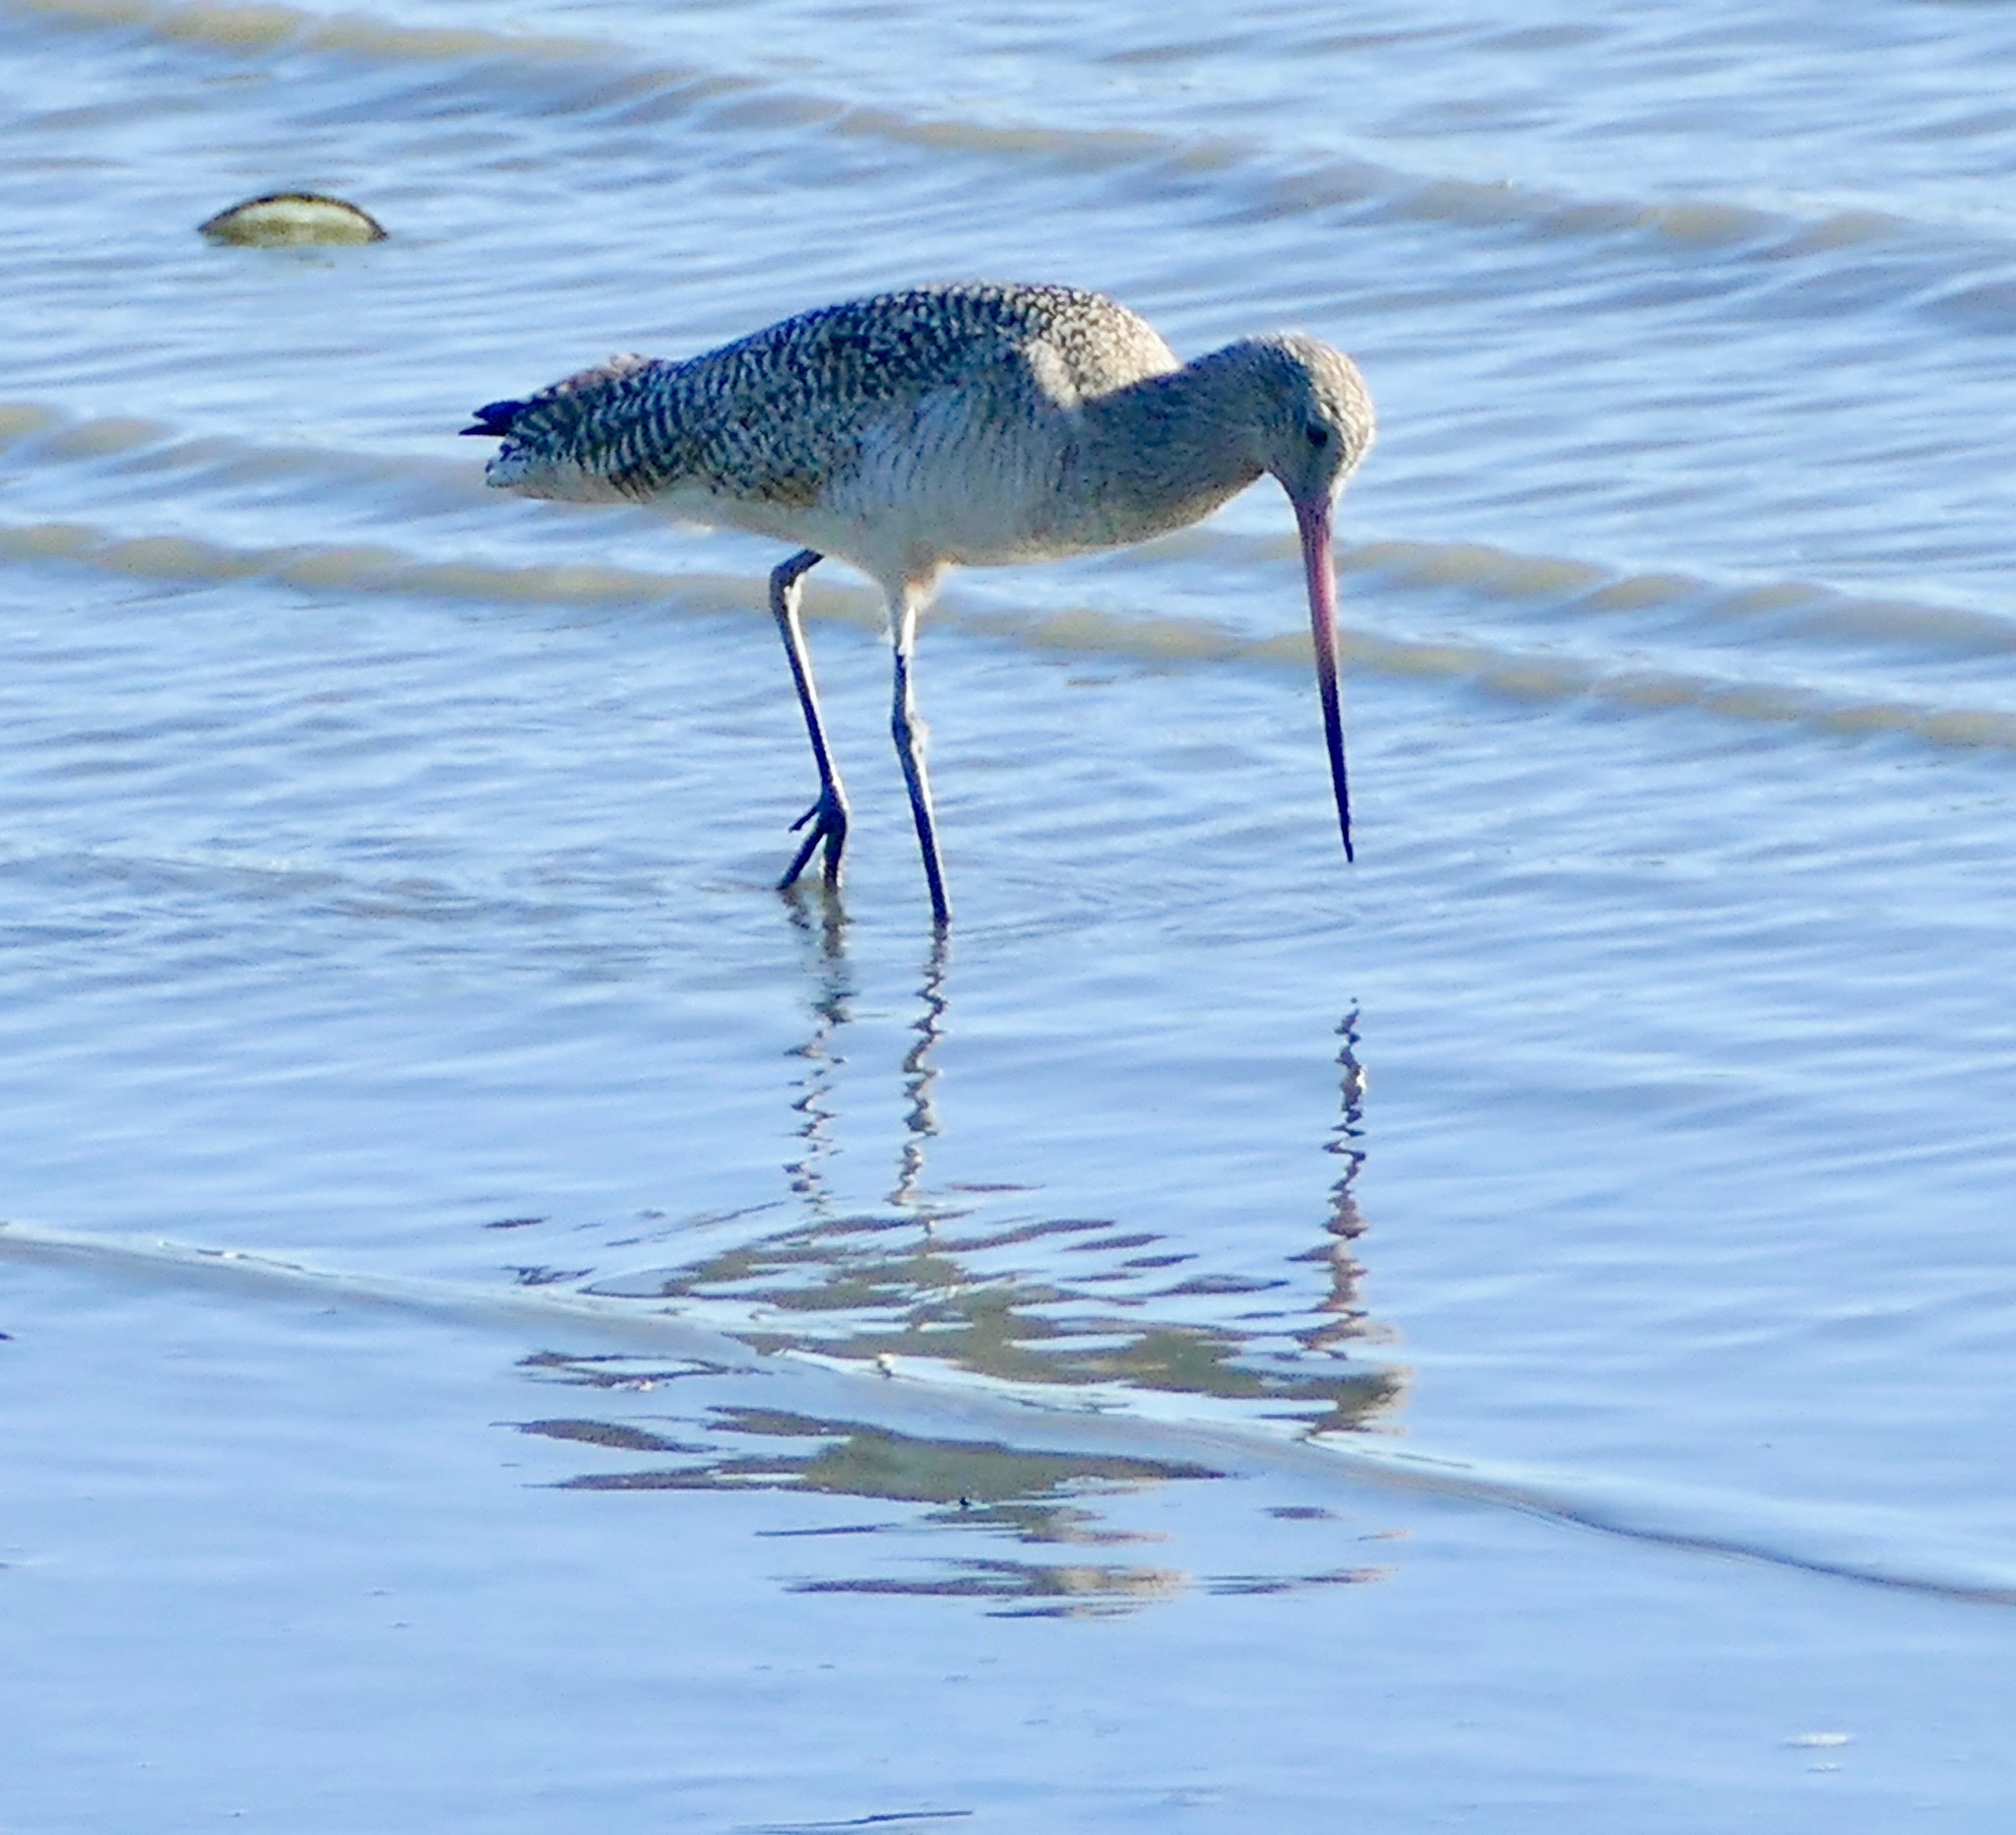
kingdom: Animalia
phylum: Chordata
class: Aves
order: Charadriiformes
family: Scolopacidae
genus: Limosa
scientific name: Limosa fedoa
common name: Marbled godwit
